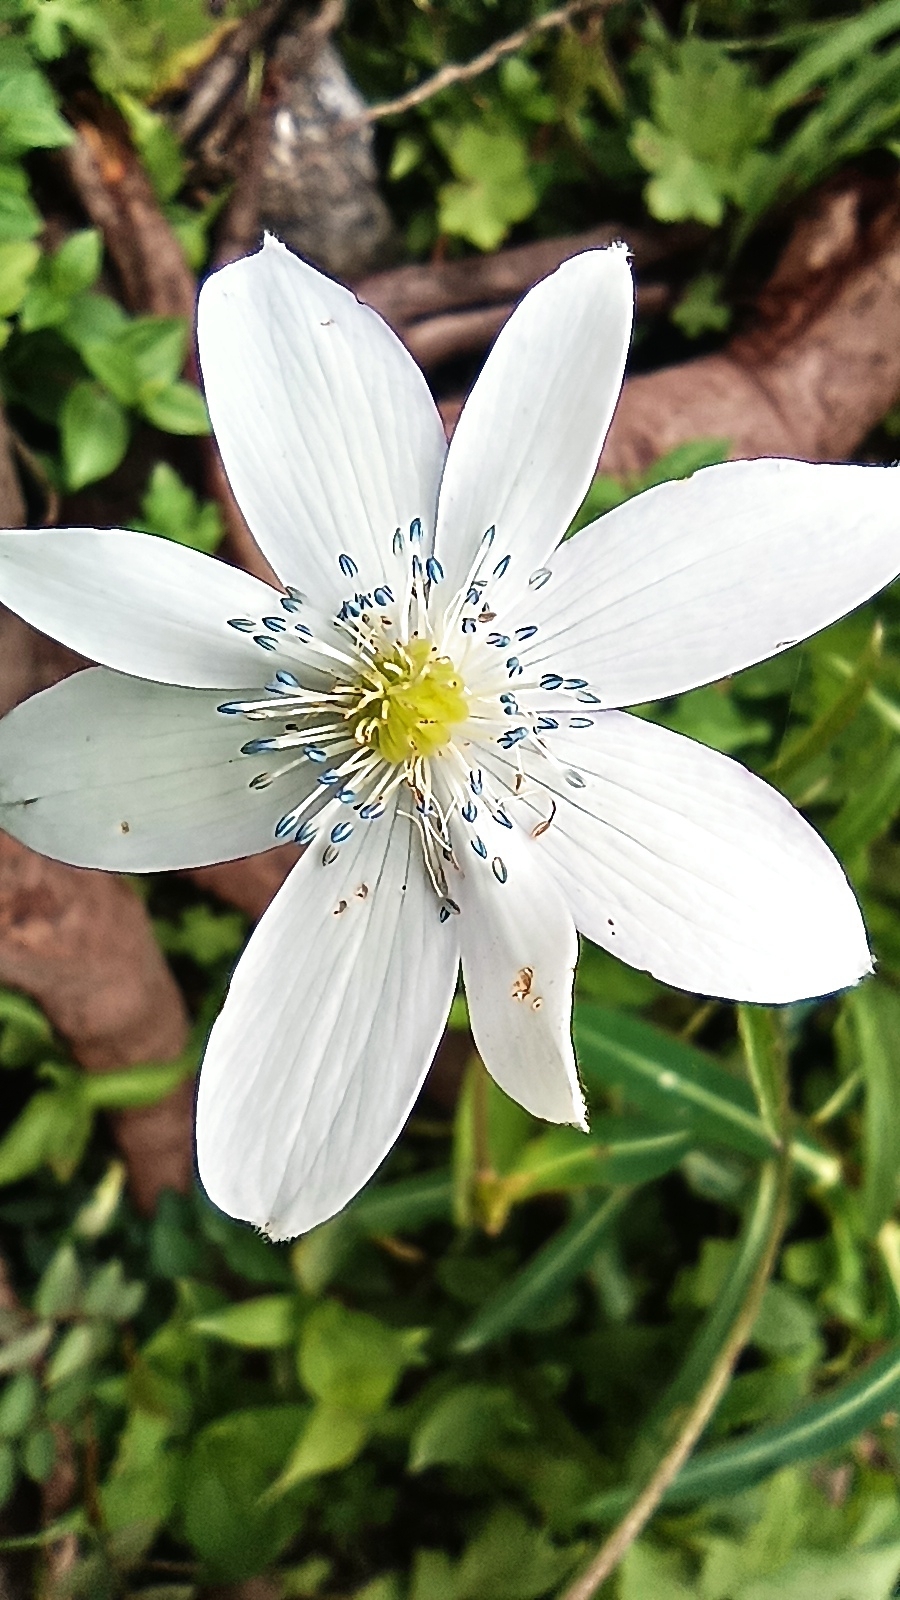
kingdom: Plantae
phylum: Tracheophyta
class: Magnoliopsida
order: Ranunculales
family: Ranunculaceae
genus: Eriocapitella
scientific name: Eriocapitella rivularis
